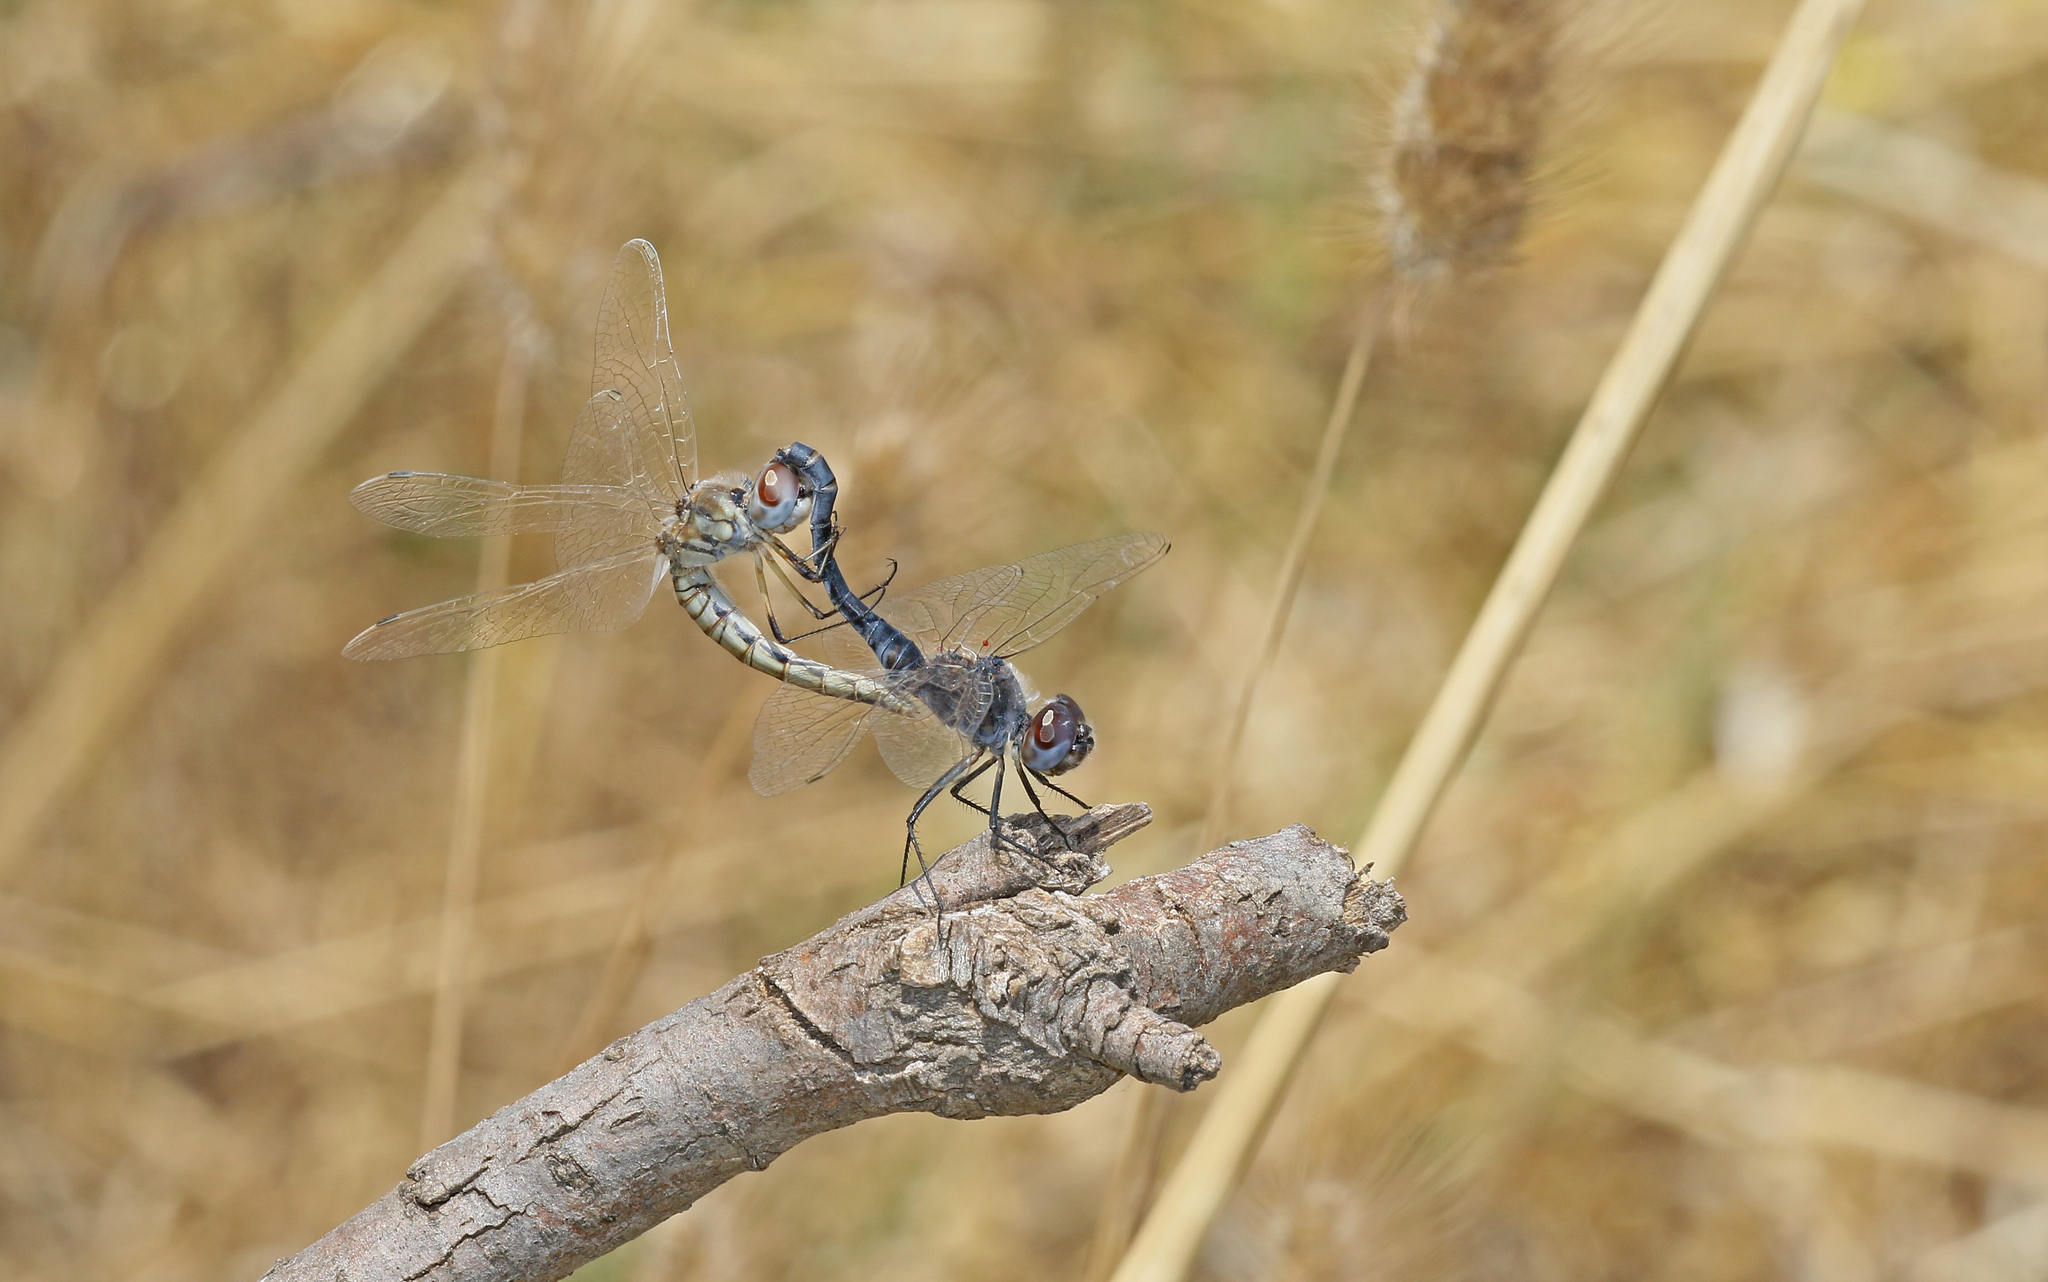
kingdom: Animalia
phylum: Arthropoda
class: Insecta
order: Odonata
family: Libellulidae
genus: Selysiothemis
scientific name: Selysiothemis nigra
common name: Black pennant
